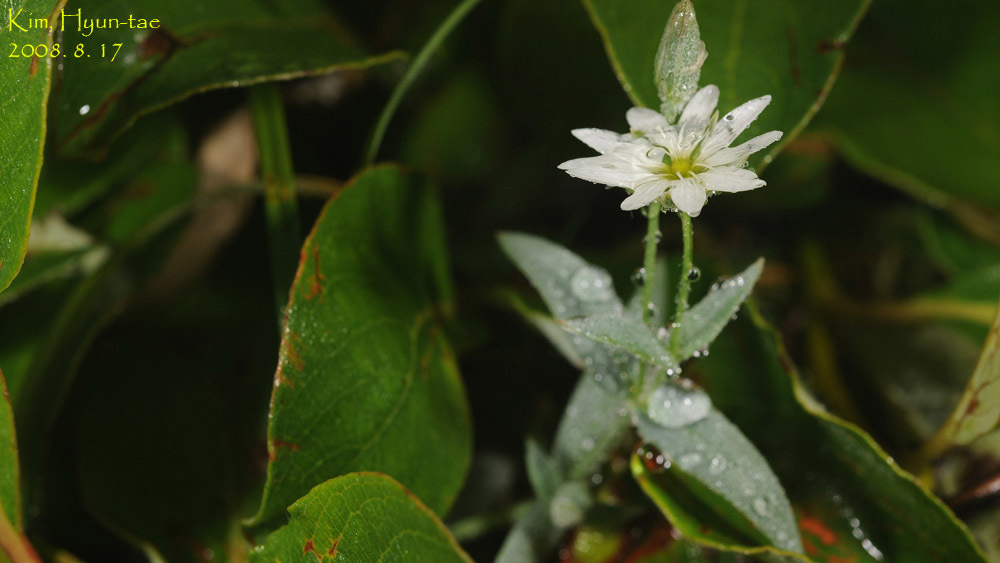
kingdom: Plantae
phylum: Tracheophyta
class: Magnoliopsida
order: Caryophyllales
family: Caryophyllaceae
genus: Stellaria
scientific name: Stellaria eschscholtziana
